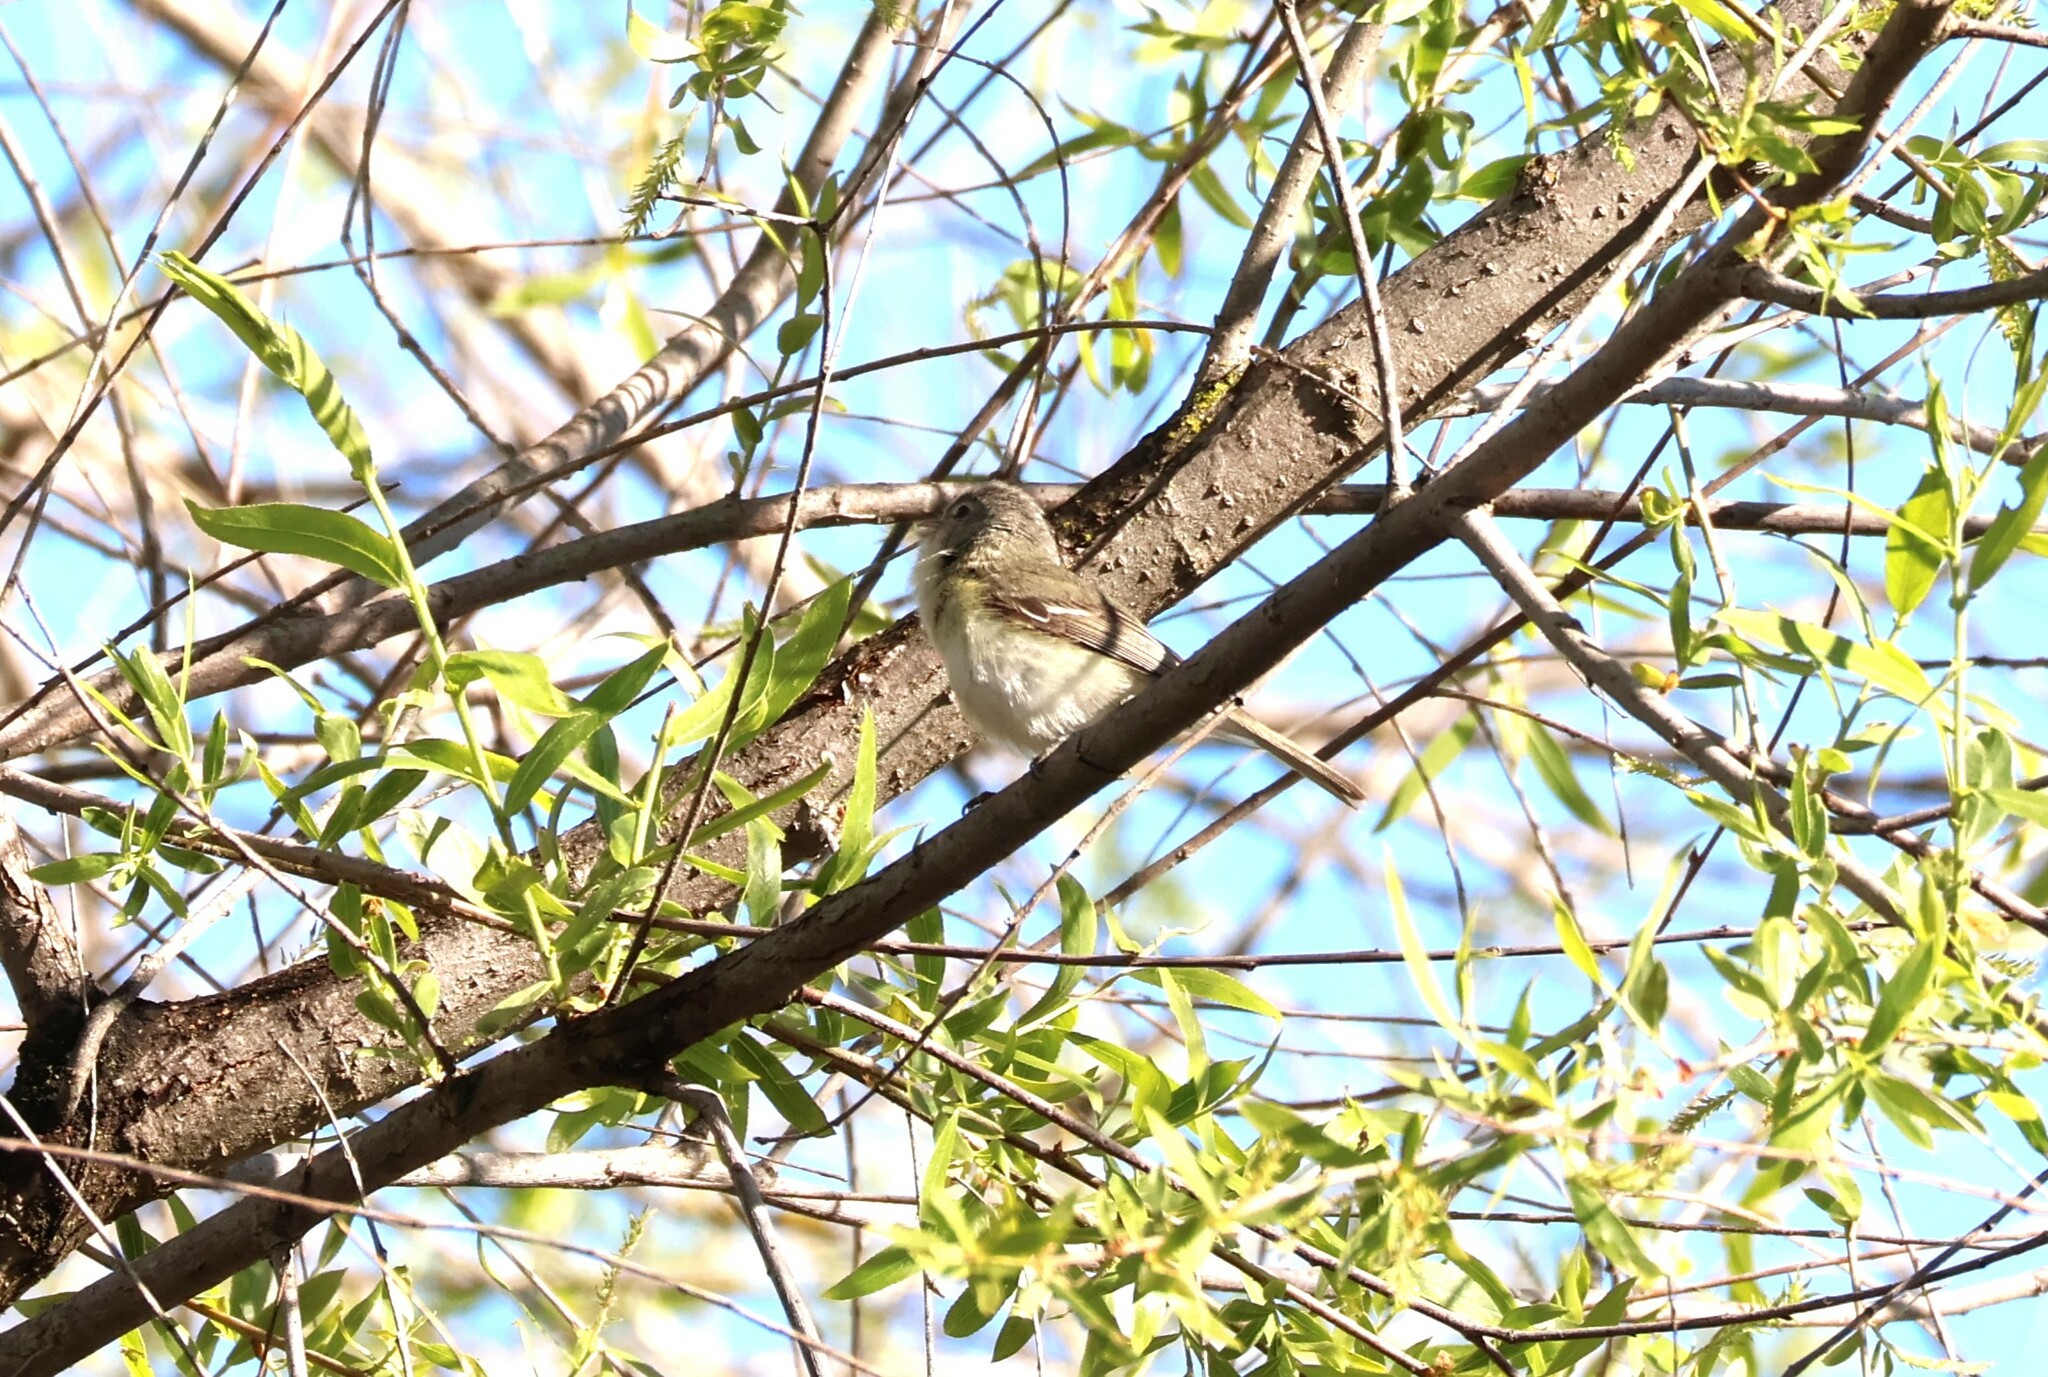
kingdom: Animalia
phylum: Chordata
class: Aves
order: Passeriformes
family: Vireonidae
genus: Vireo
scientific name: Vireo bellii
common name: Bell's vireo
